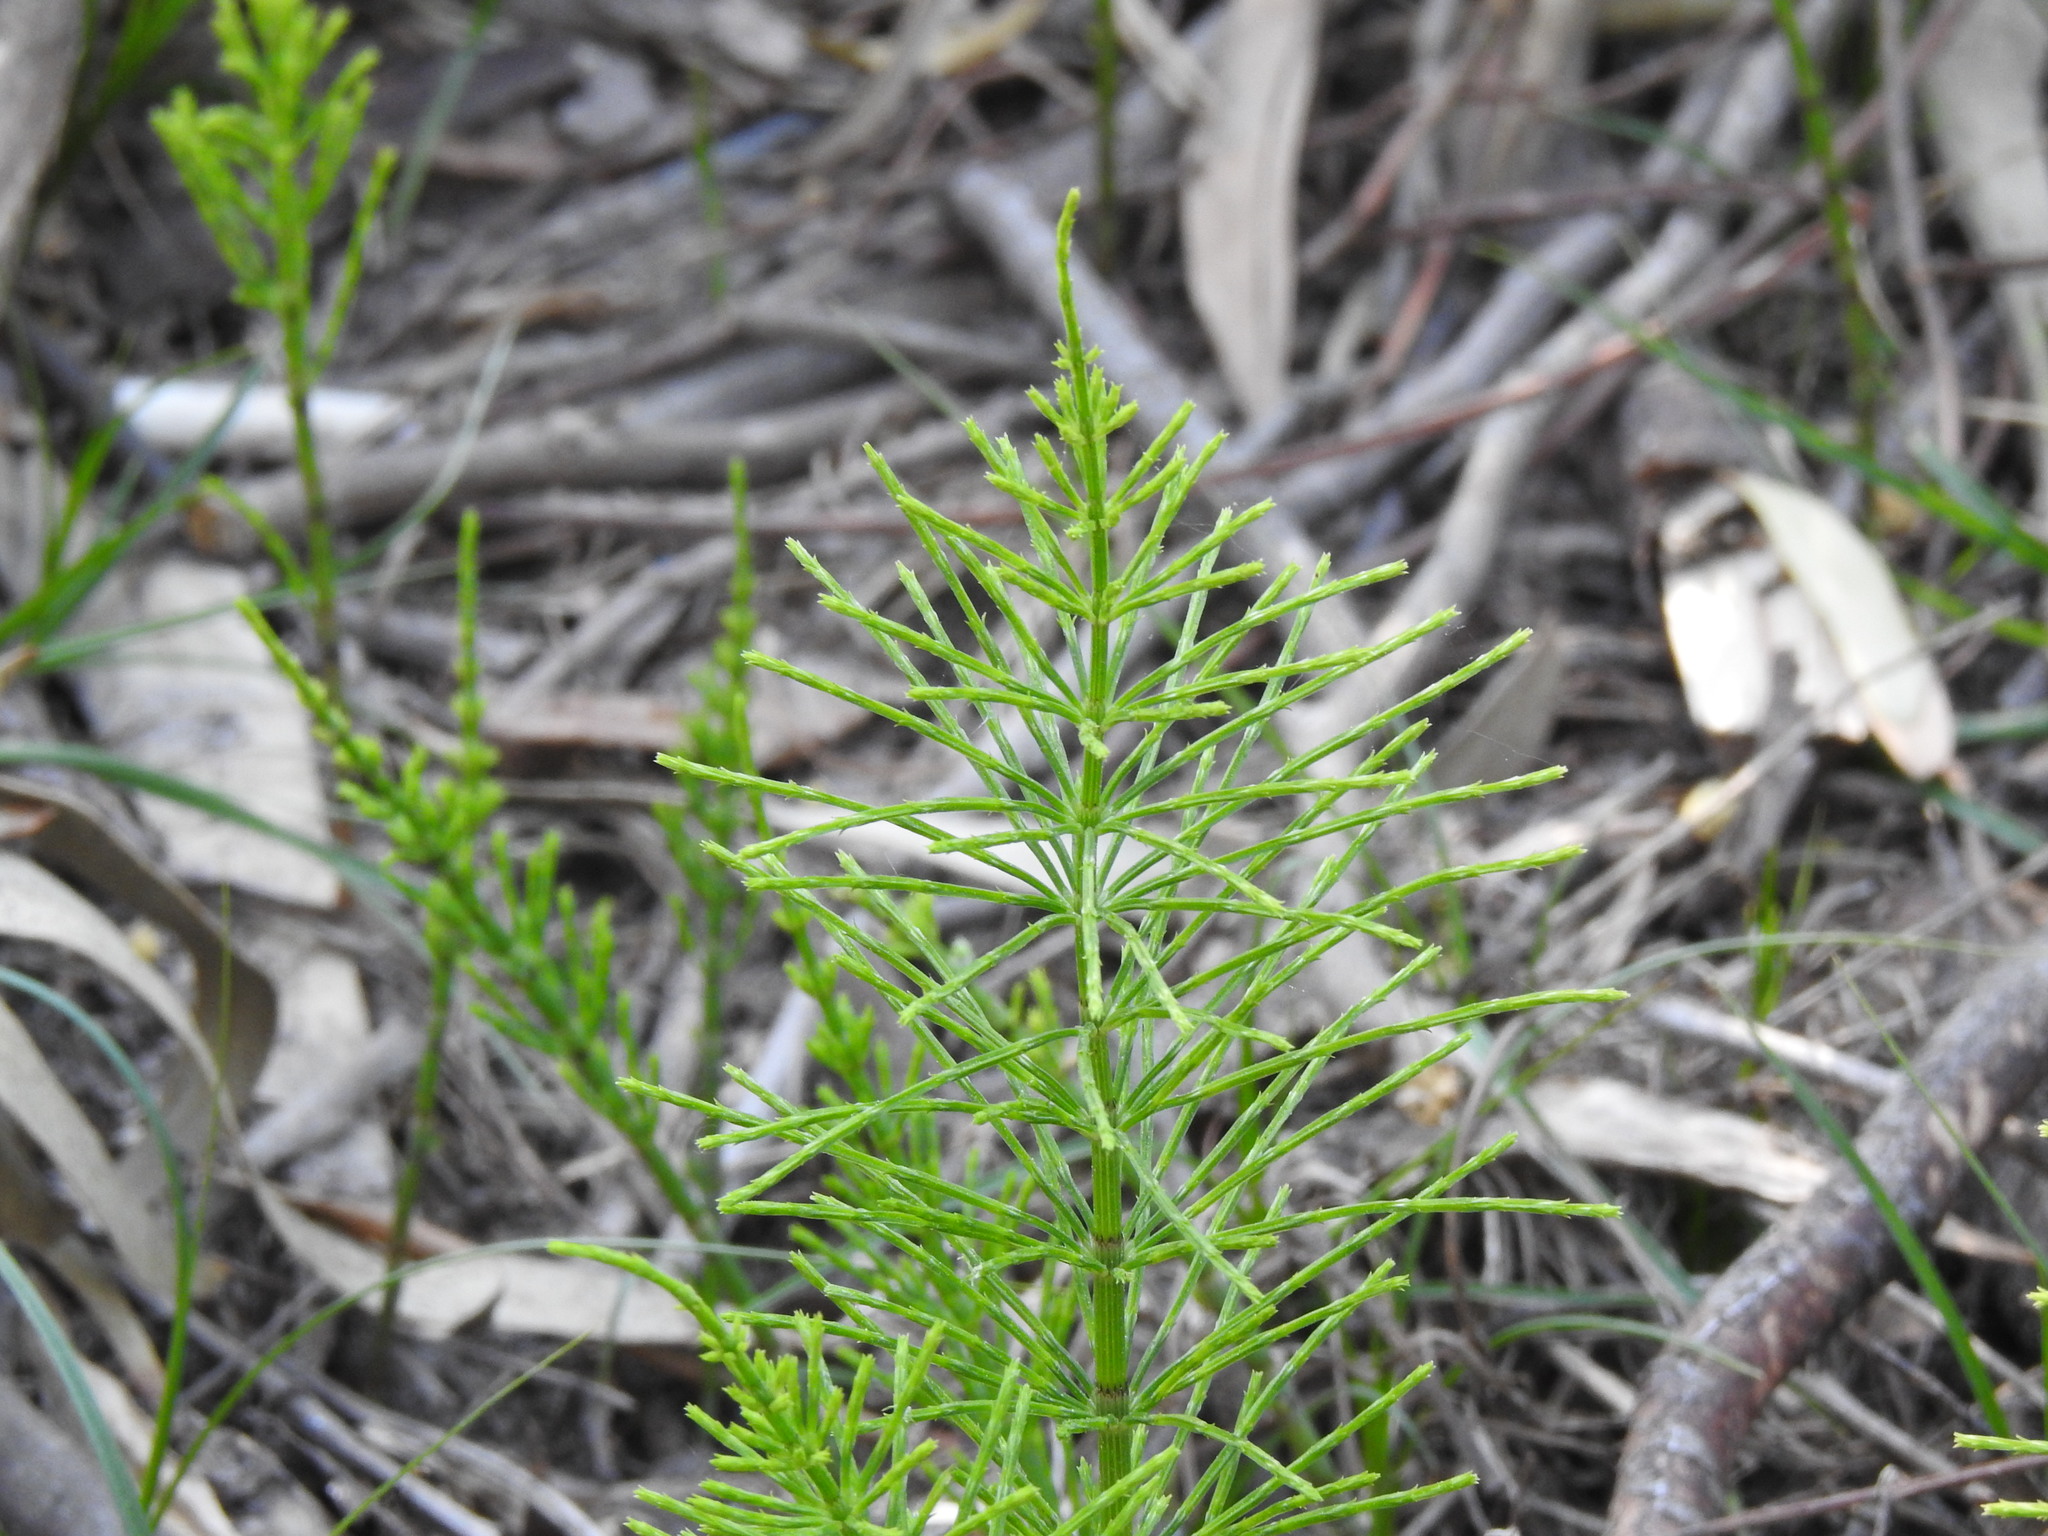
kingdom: Plantae
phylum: Tracheophyta
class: Polypodiopsida
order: Equisetales
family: Equisetaceae
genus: Equisetum
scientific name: Equisetum arvense
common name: Field horsetail
